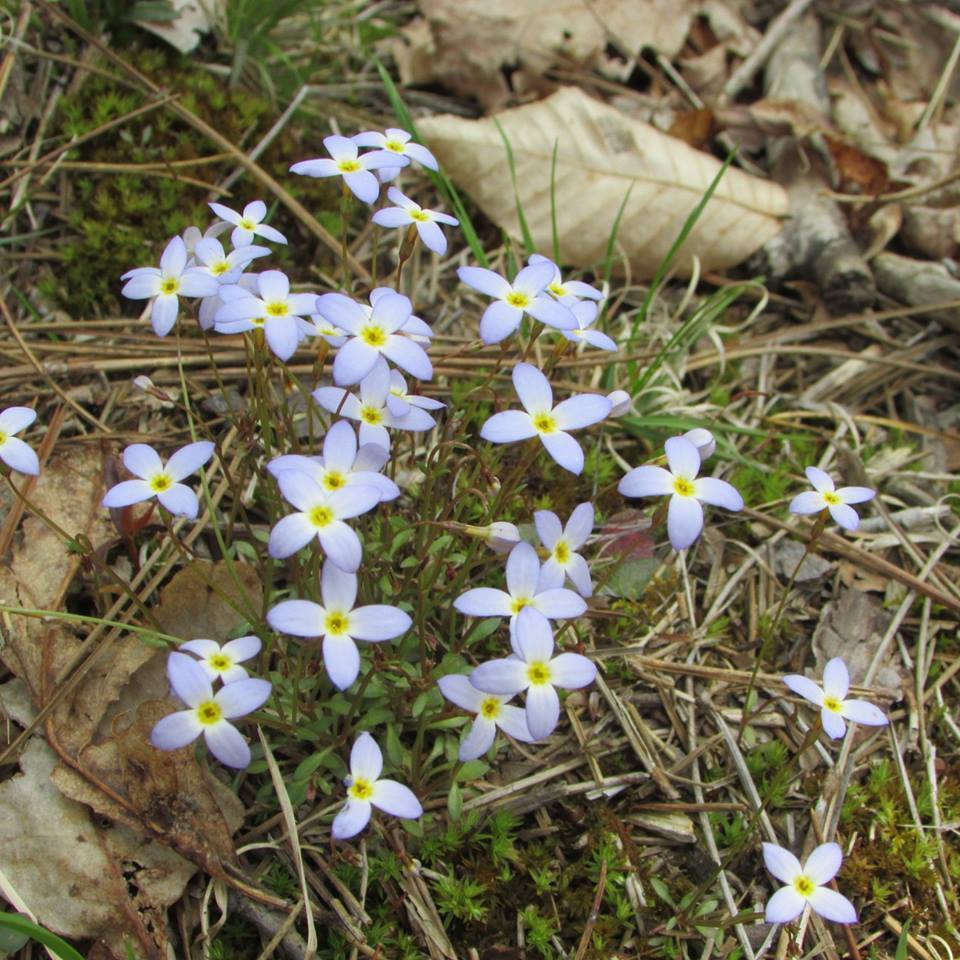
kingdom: Plantae
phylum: Tracheophyta
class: Magnoliopsida
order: Gentianales
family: Rubiaceae
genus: Houstonia
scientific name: Houstonia caerulea
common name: Bluets
